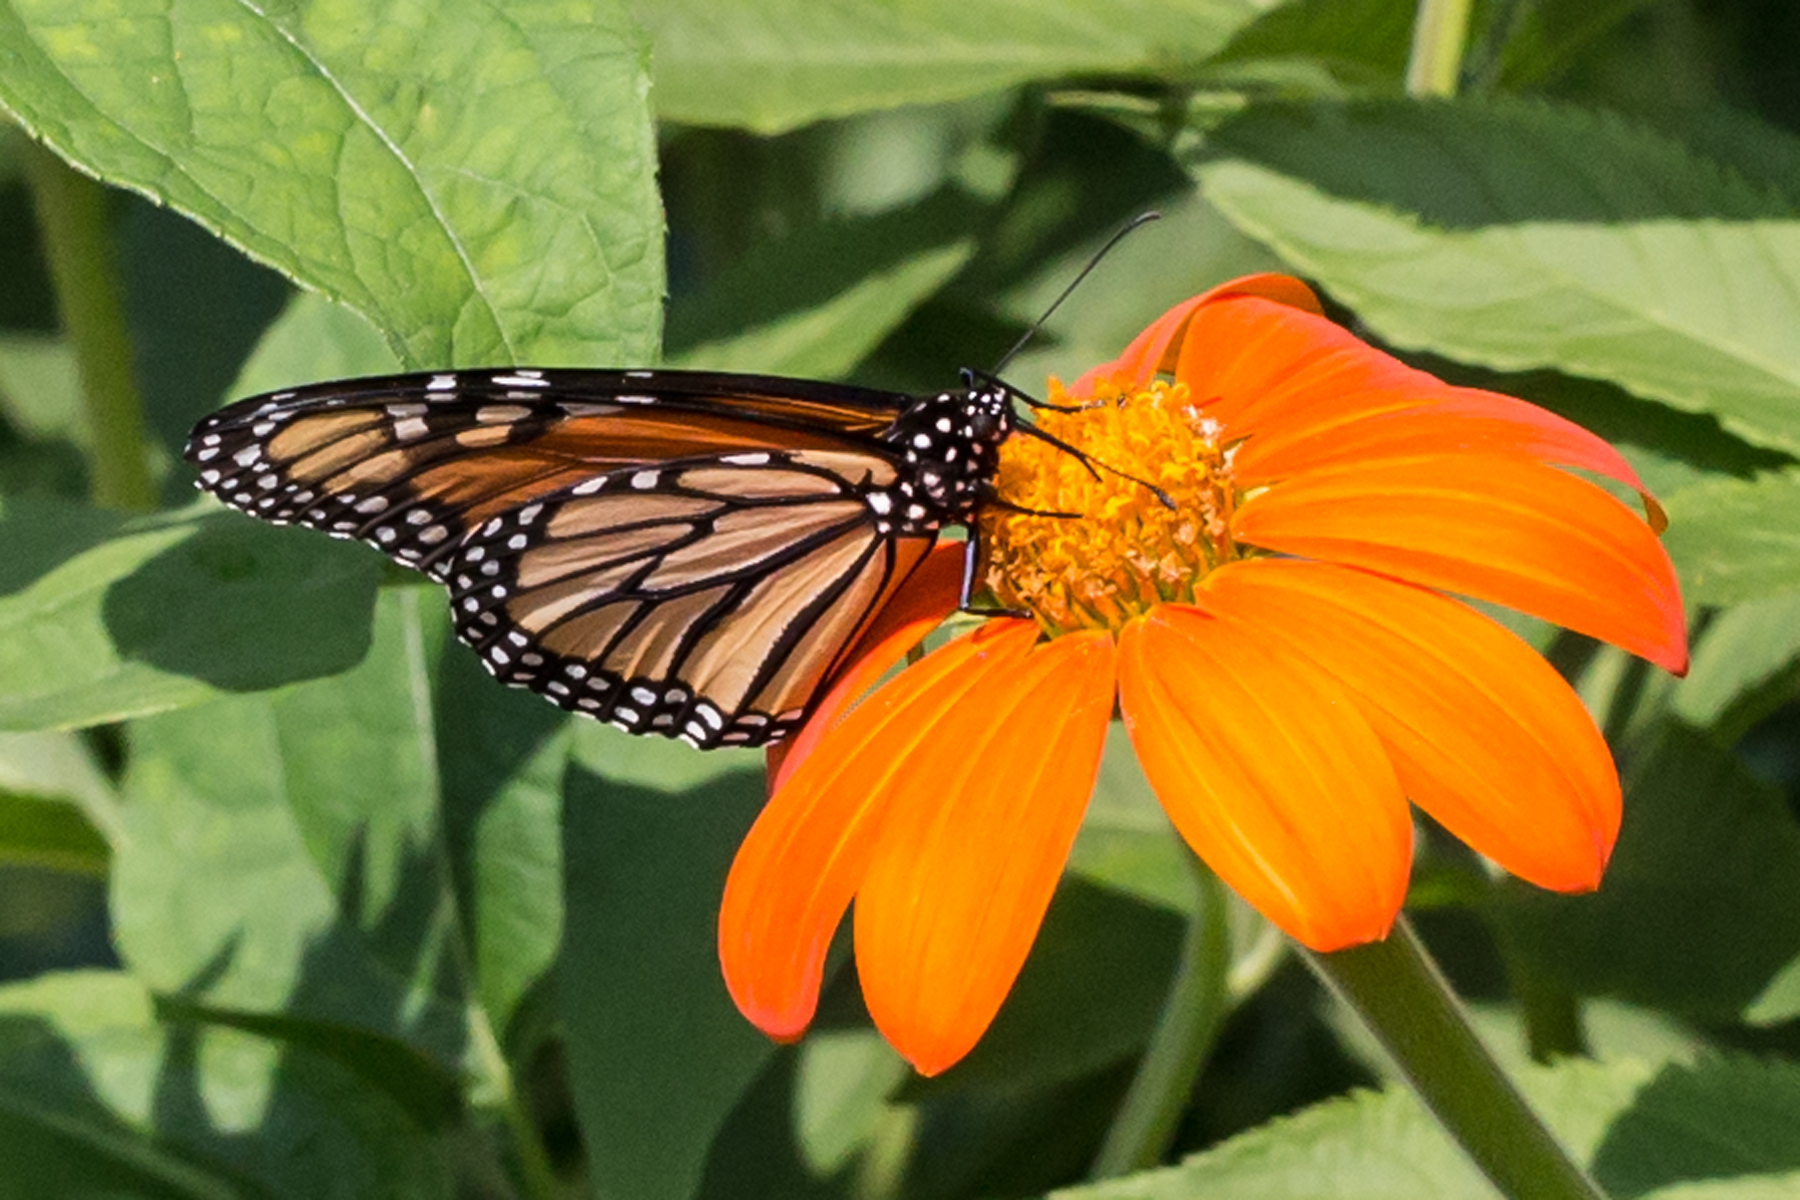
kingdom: Animalia
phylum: Arthropoda
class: Insecta
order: Lepidoptera
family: Nymphalidae
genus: Danaus
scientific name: Danaus plexippus
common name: Monarch
